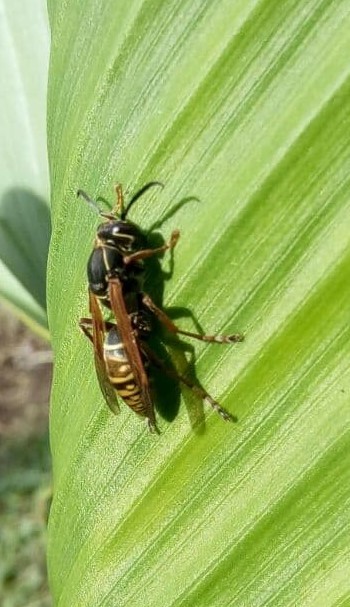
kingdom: Animalia
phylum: Arthropoda
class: Insecta
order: Hymenoptera
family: Eumenidae
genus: Polistes
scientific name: Polistes cinerascens
